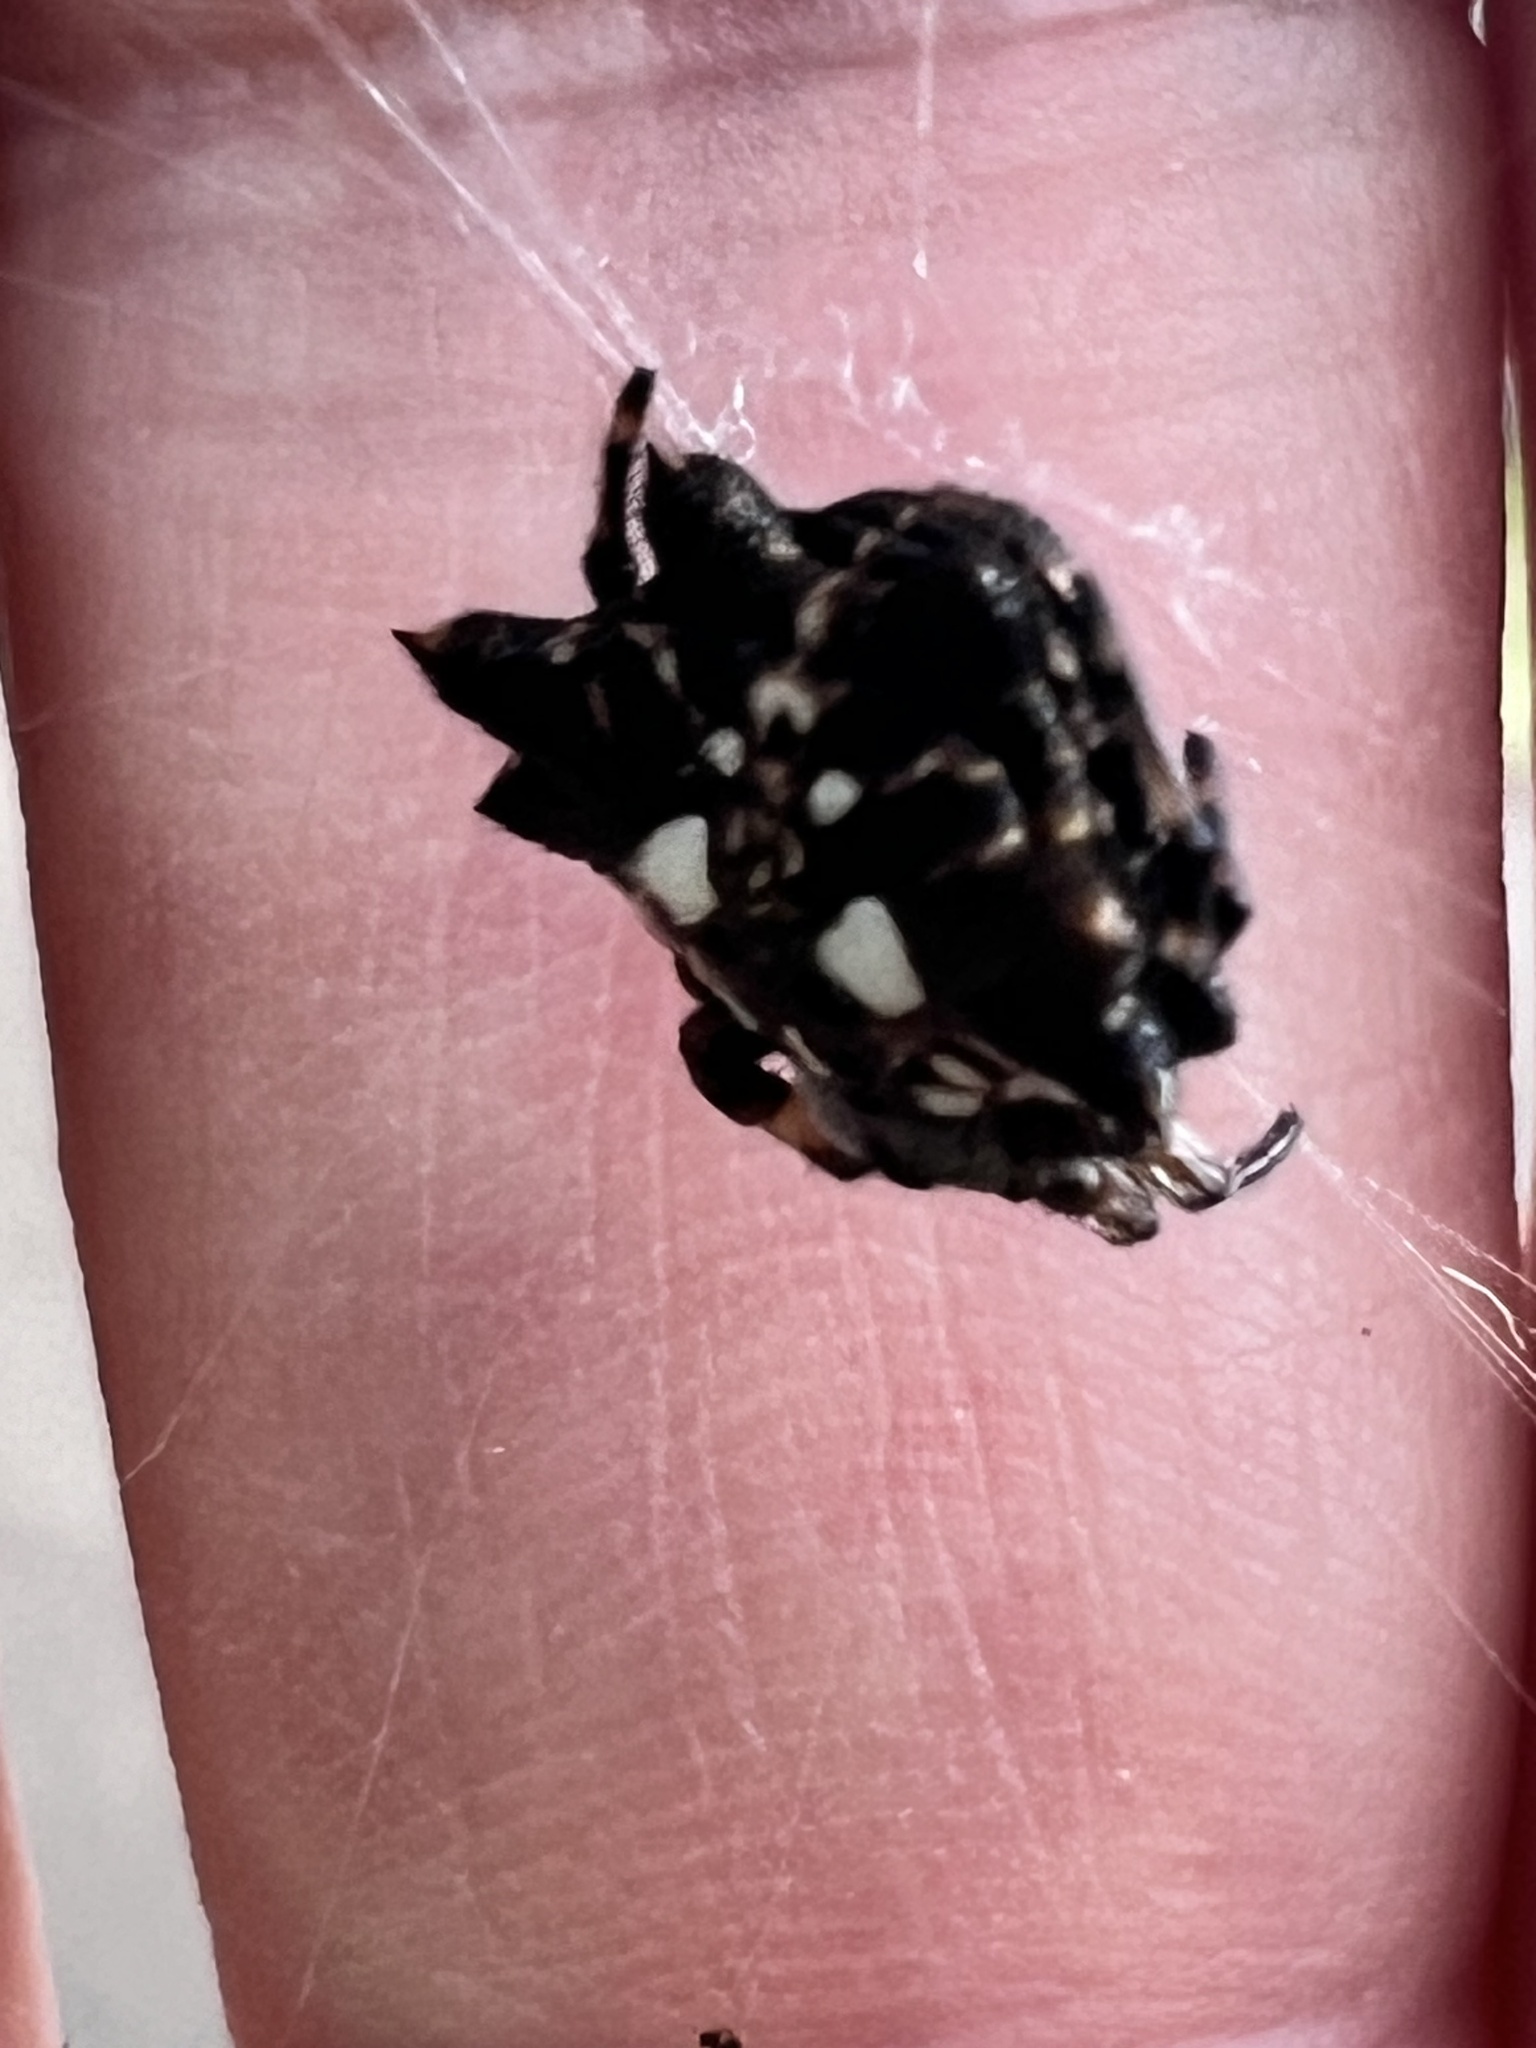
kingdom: Animalia
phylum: Arthropoda
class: Arachnida
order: Araneae
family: Araneidae
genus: Thelacantha
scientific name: Thelacantha brevispina
